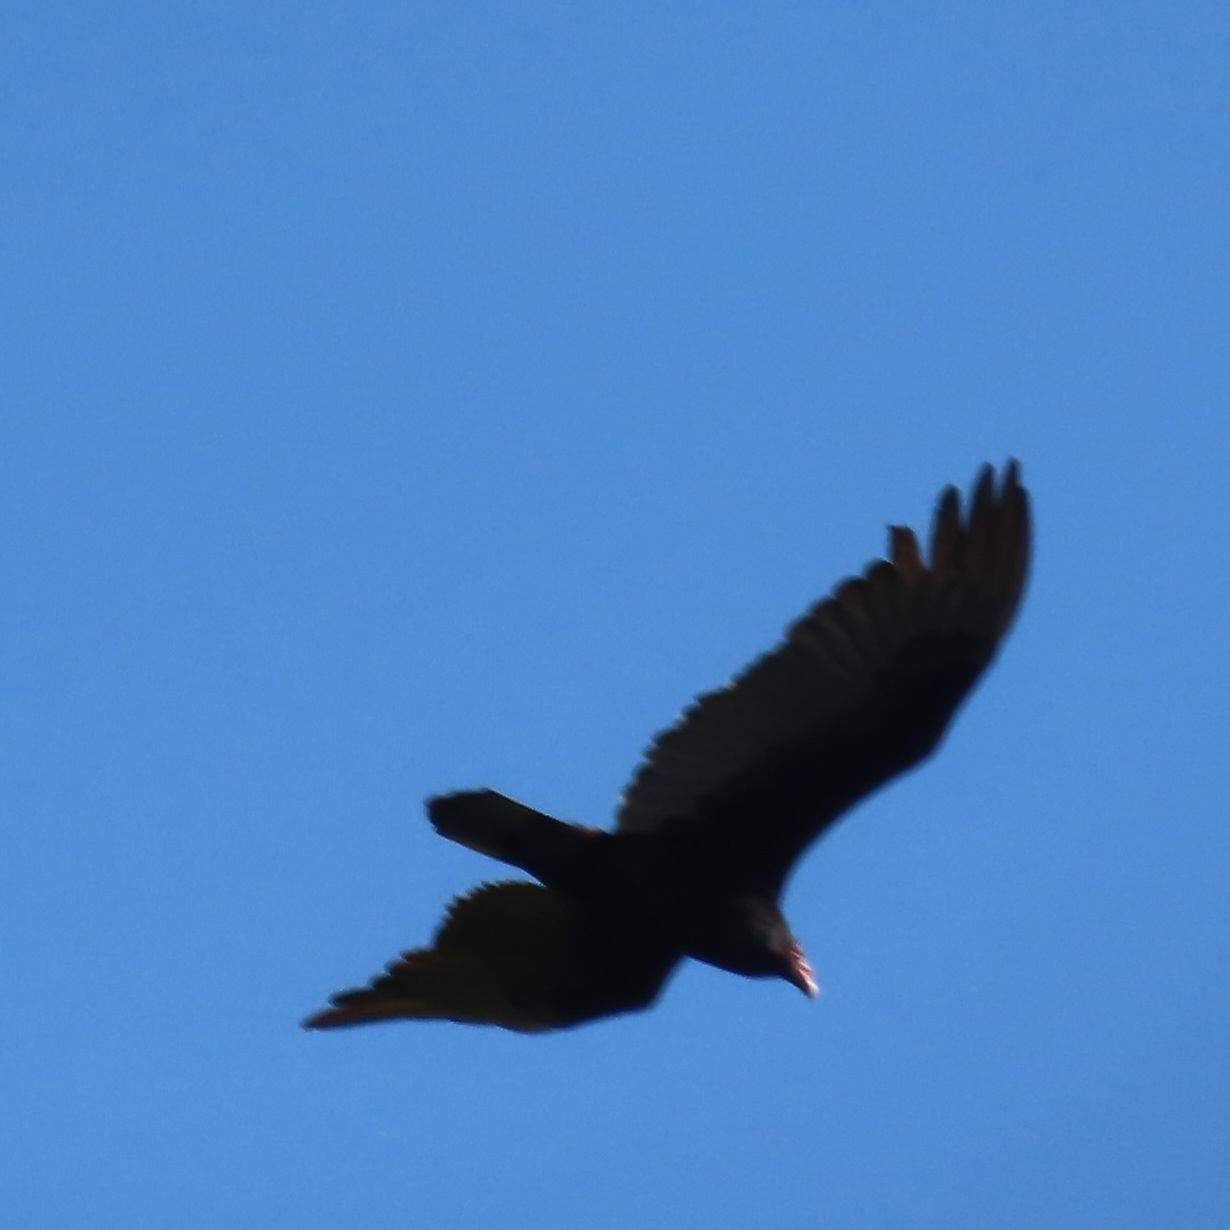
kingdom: Animalia
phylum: Chordata
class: Aves
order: Accipitriformes
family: Cathartidae
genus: Cathartes
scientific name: Cathartes aura
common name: Turkey vulture
